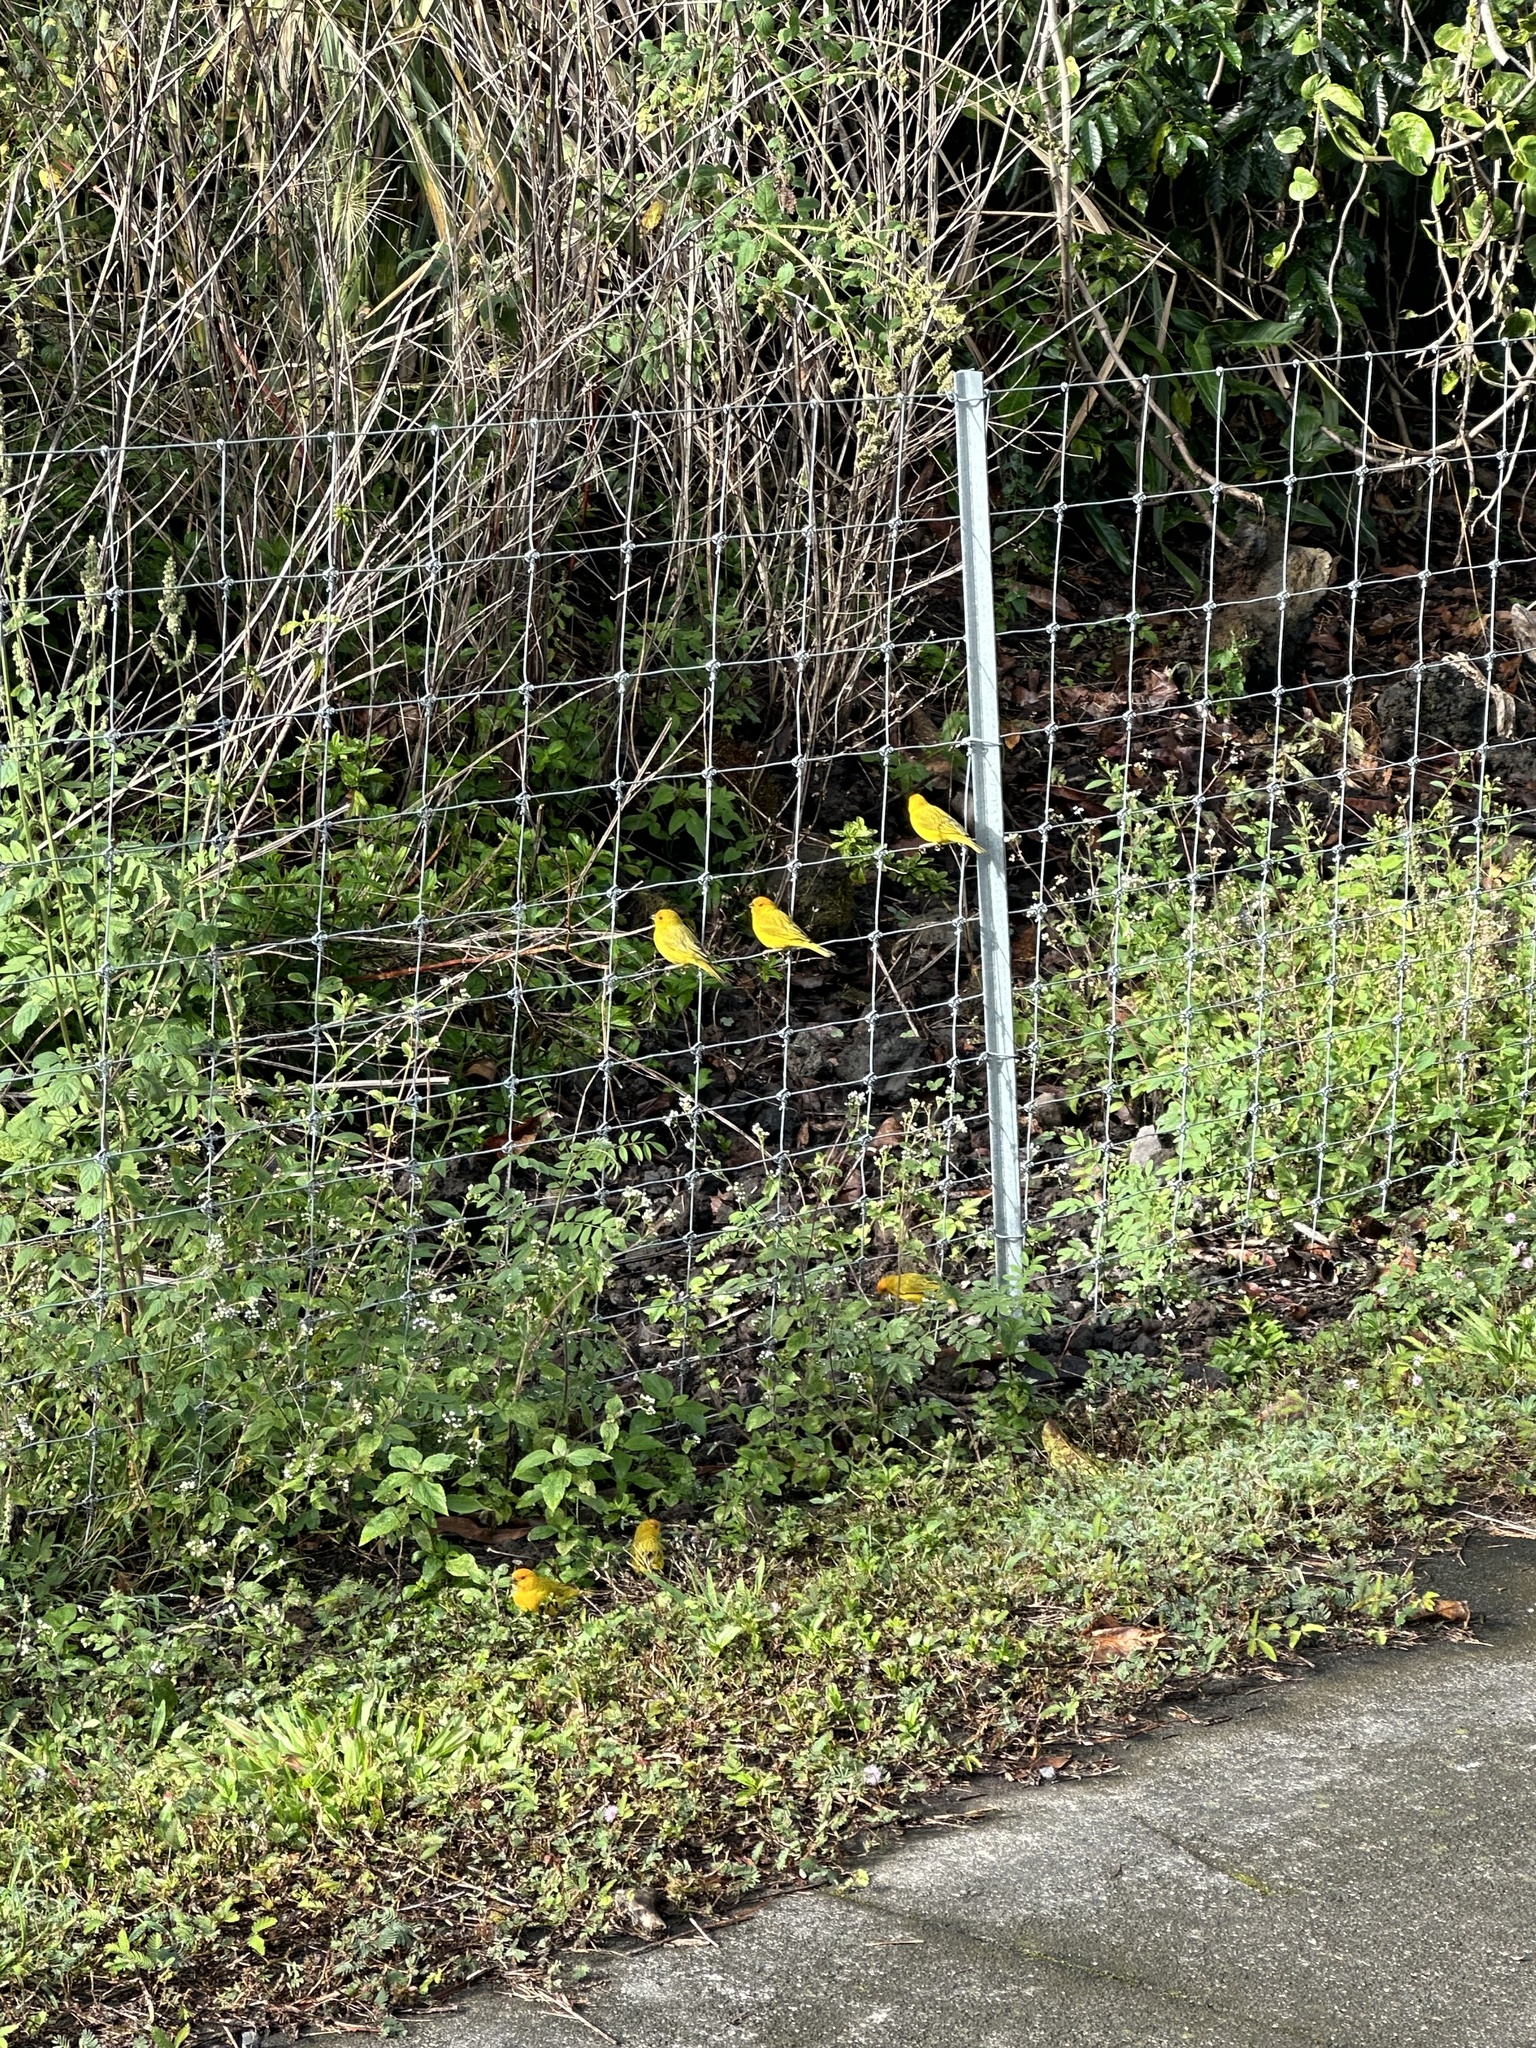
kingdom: Animalia
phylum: Chordata
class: Aves
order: Passeriformes
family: Thraupidae
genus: Sicalis
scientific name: Sicalis flaveola
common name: Saffron finch
